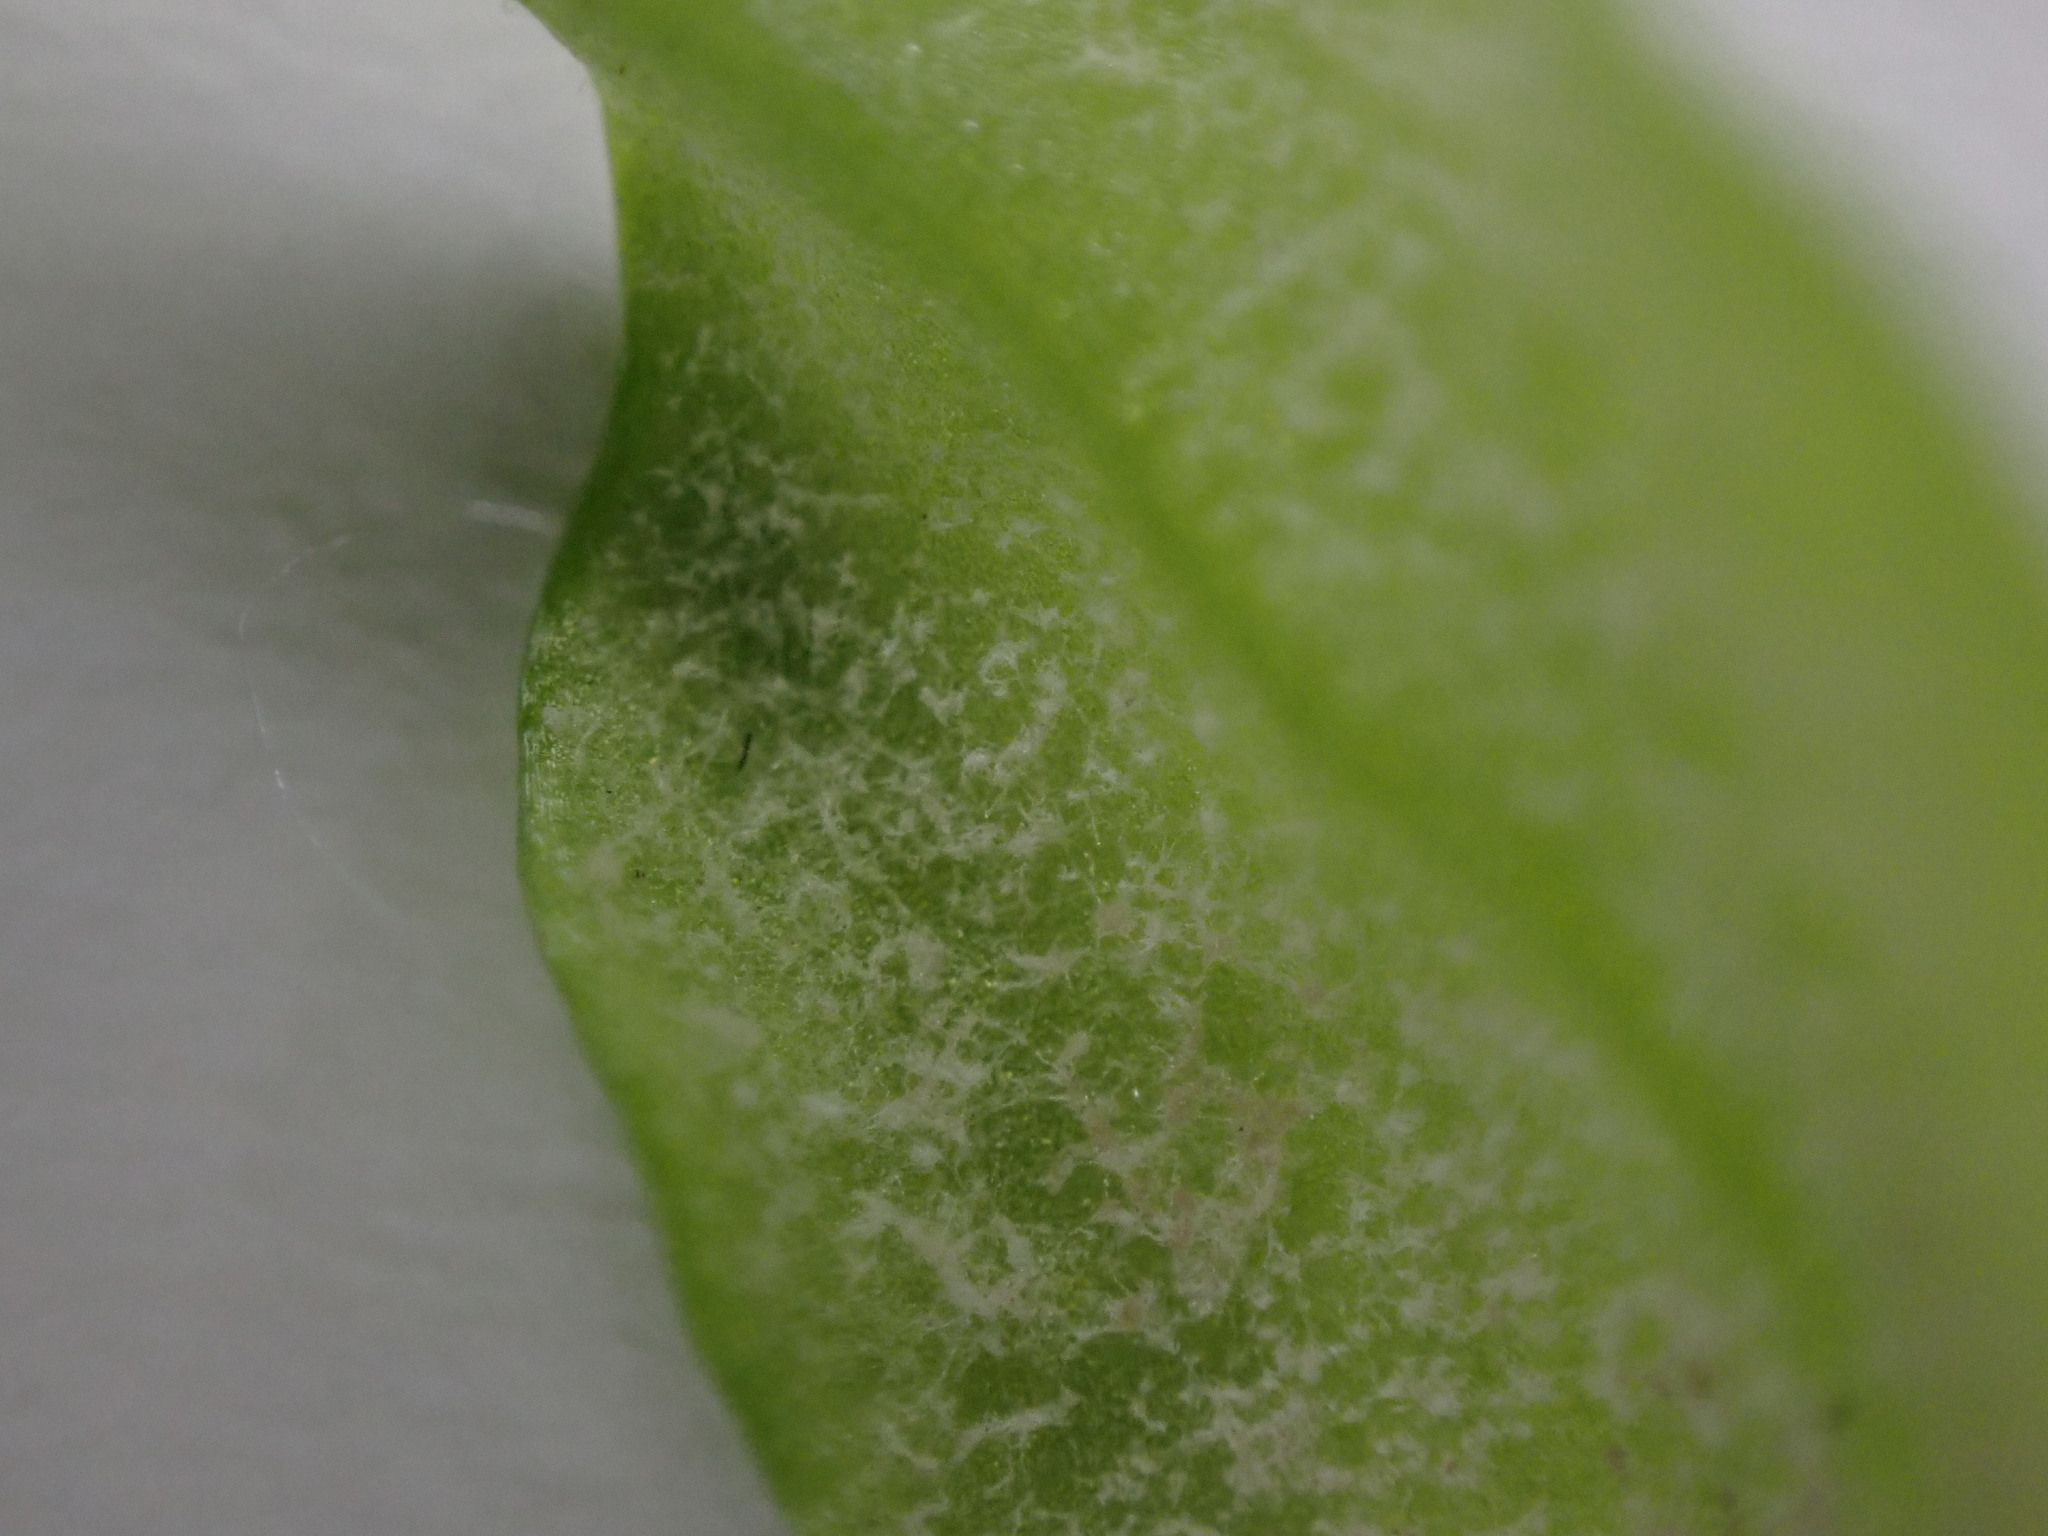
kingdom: Chromista
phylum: Oomycota
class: Peronosporea
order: Peronosporales
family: Peronosporaceae
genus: Peronospora
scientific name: Peronospora alsinearum
